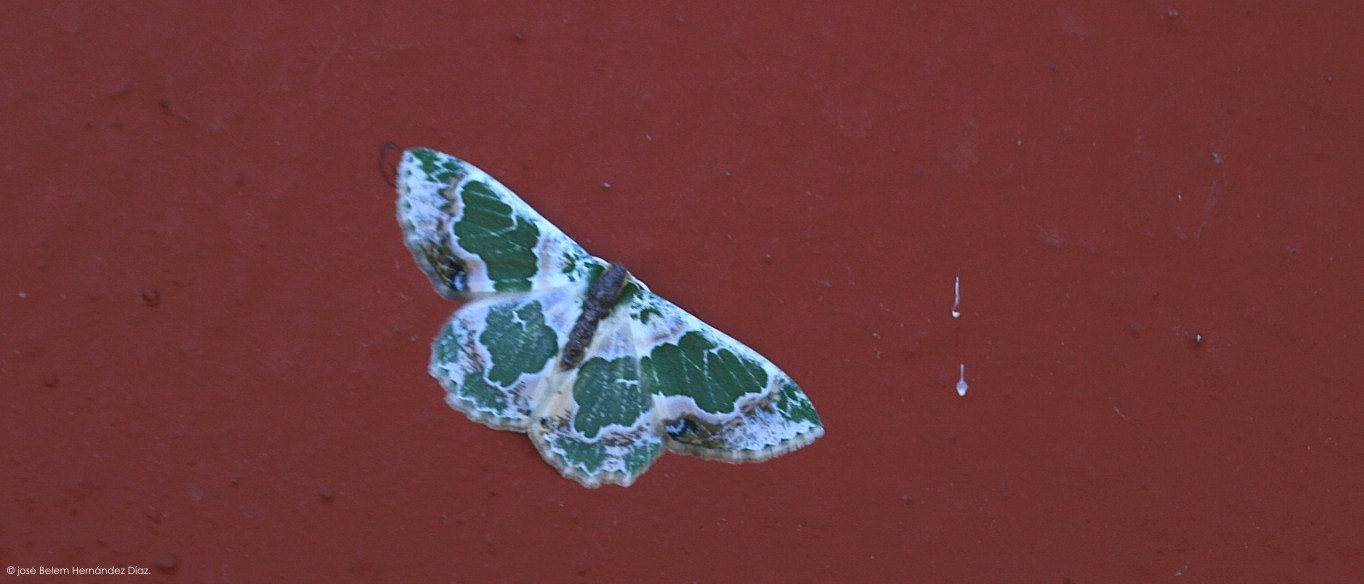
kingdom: Animalia
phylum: Arthropoda
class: Insecta
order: Lepidoptera
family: Geometridae
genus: Lophochorista
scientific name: Lophochorista calliope
